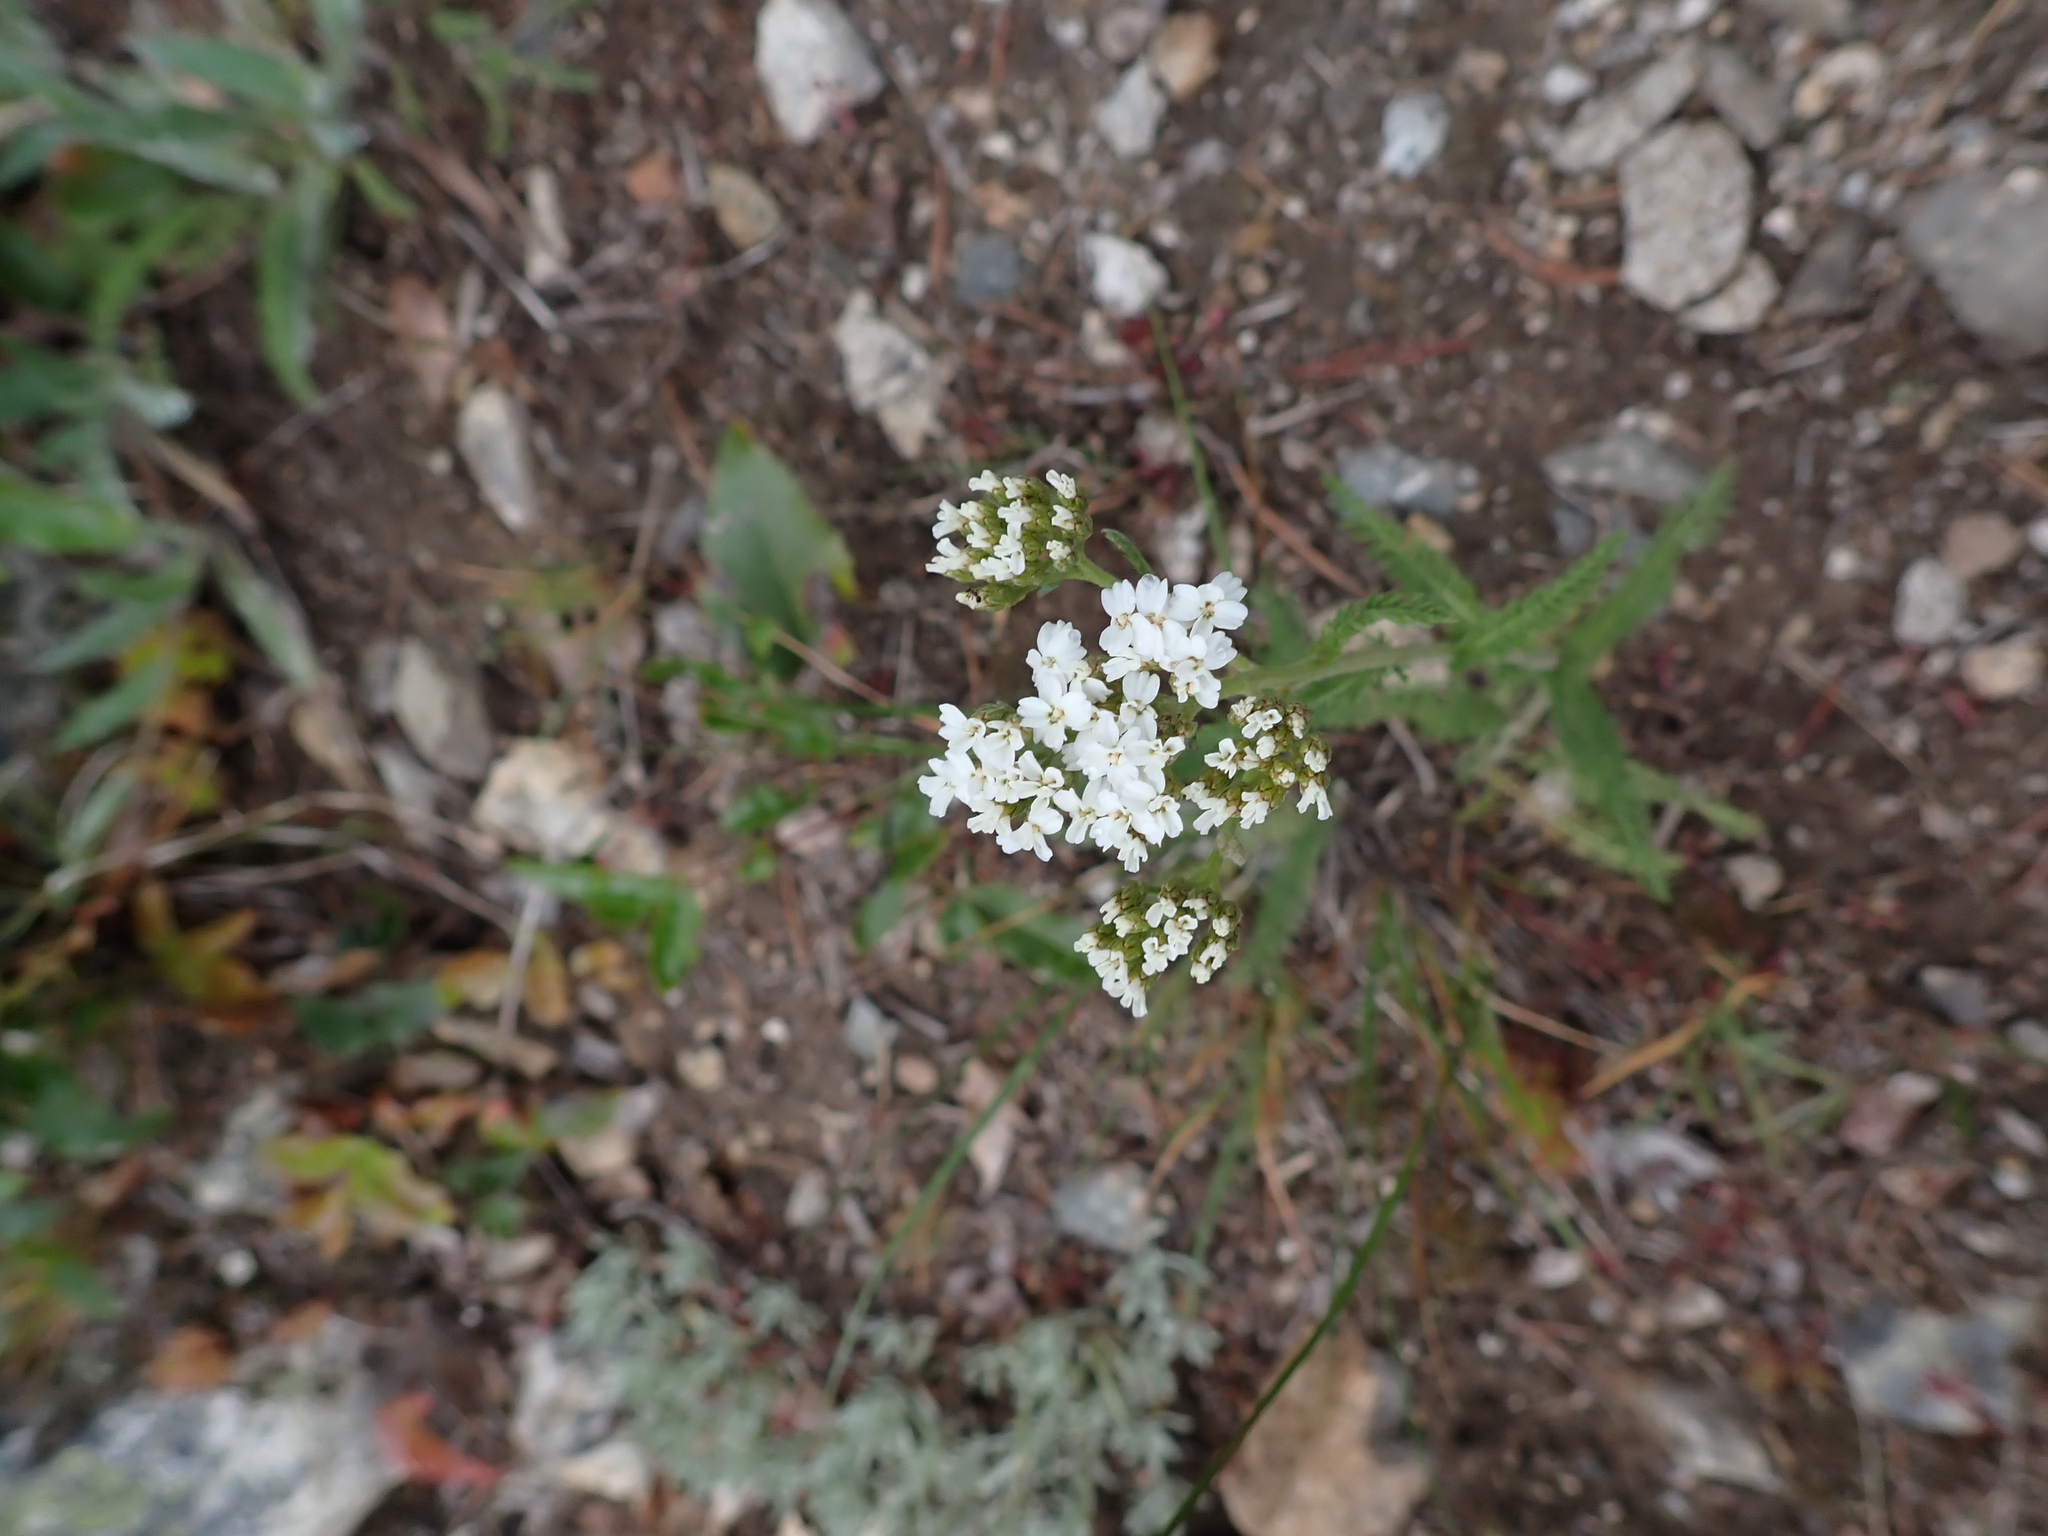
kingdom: Plantae
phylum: Tracheophyta
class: Magnoliopsida
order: Asterales
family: Asteraceae
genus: Achillea
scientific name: Achillea millefolium
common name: Yarrow
